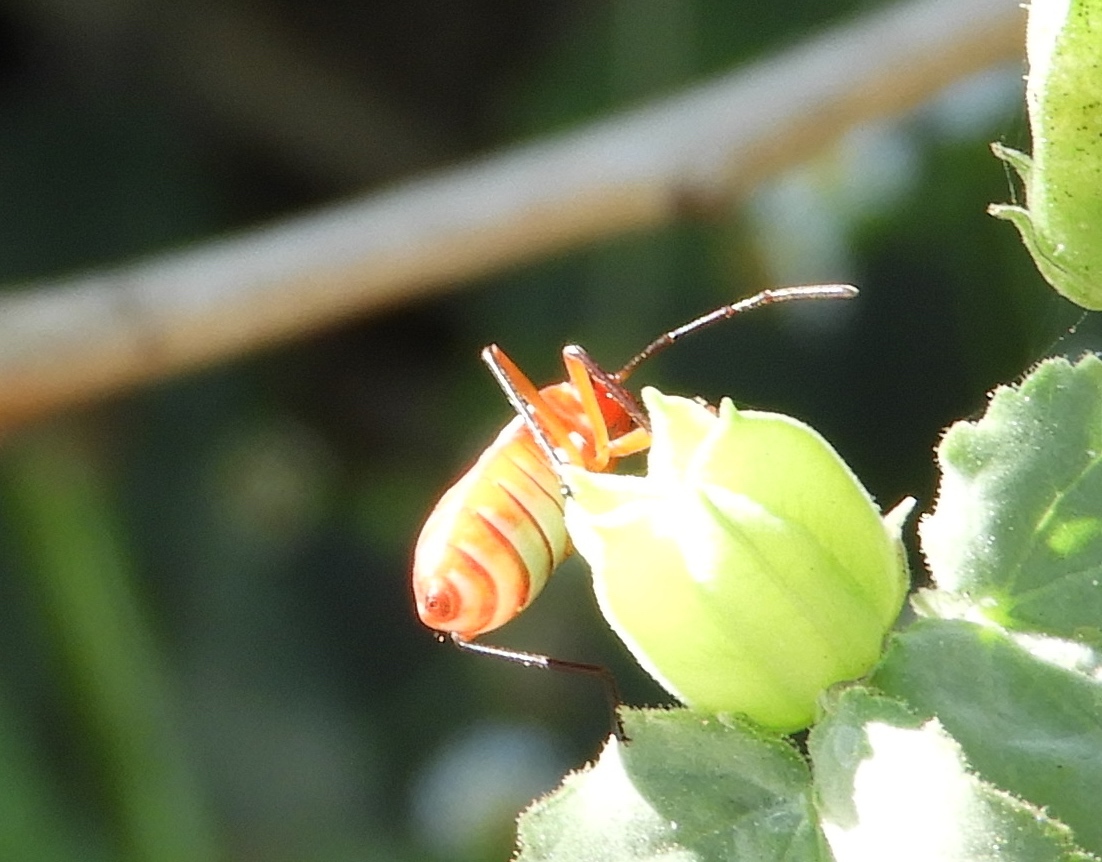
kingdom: Animalia
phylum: Arthropoda
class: Insecta
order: Hemiptera
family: Pyrrhocoridae
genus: Dysdercus
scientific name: Dysdercus
